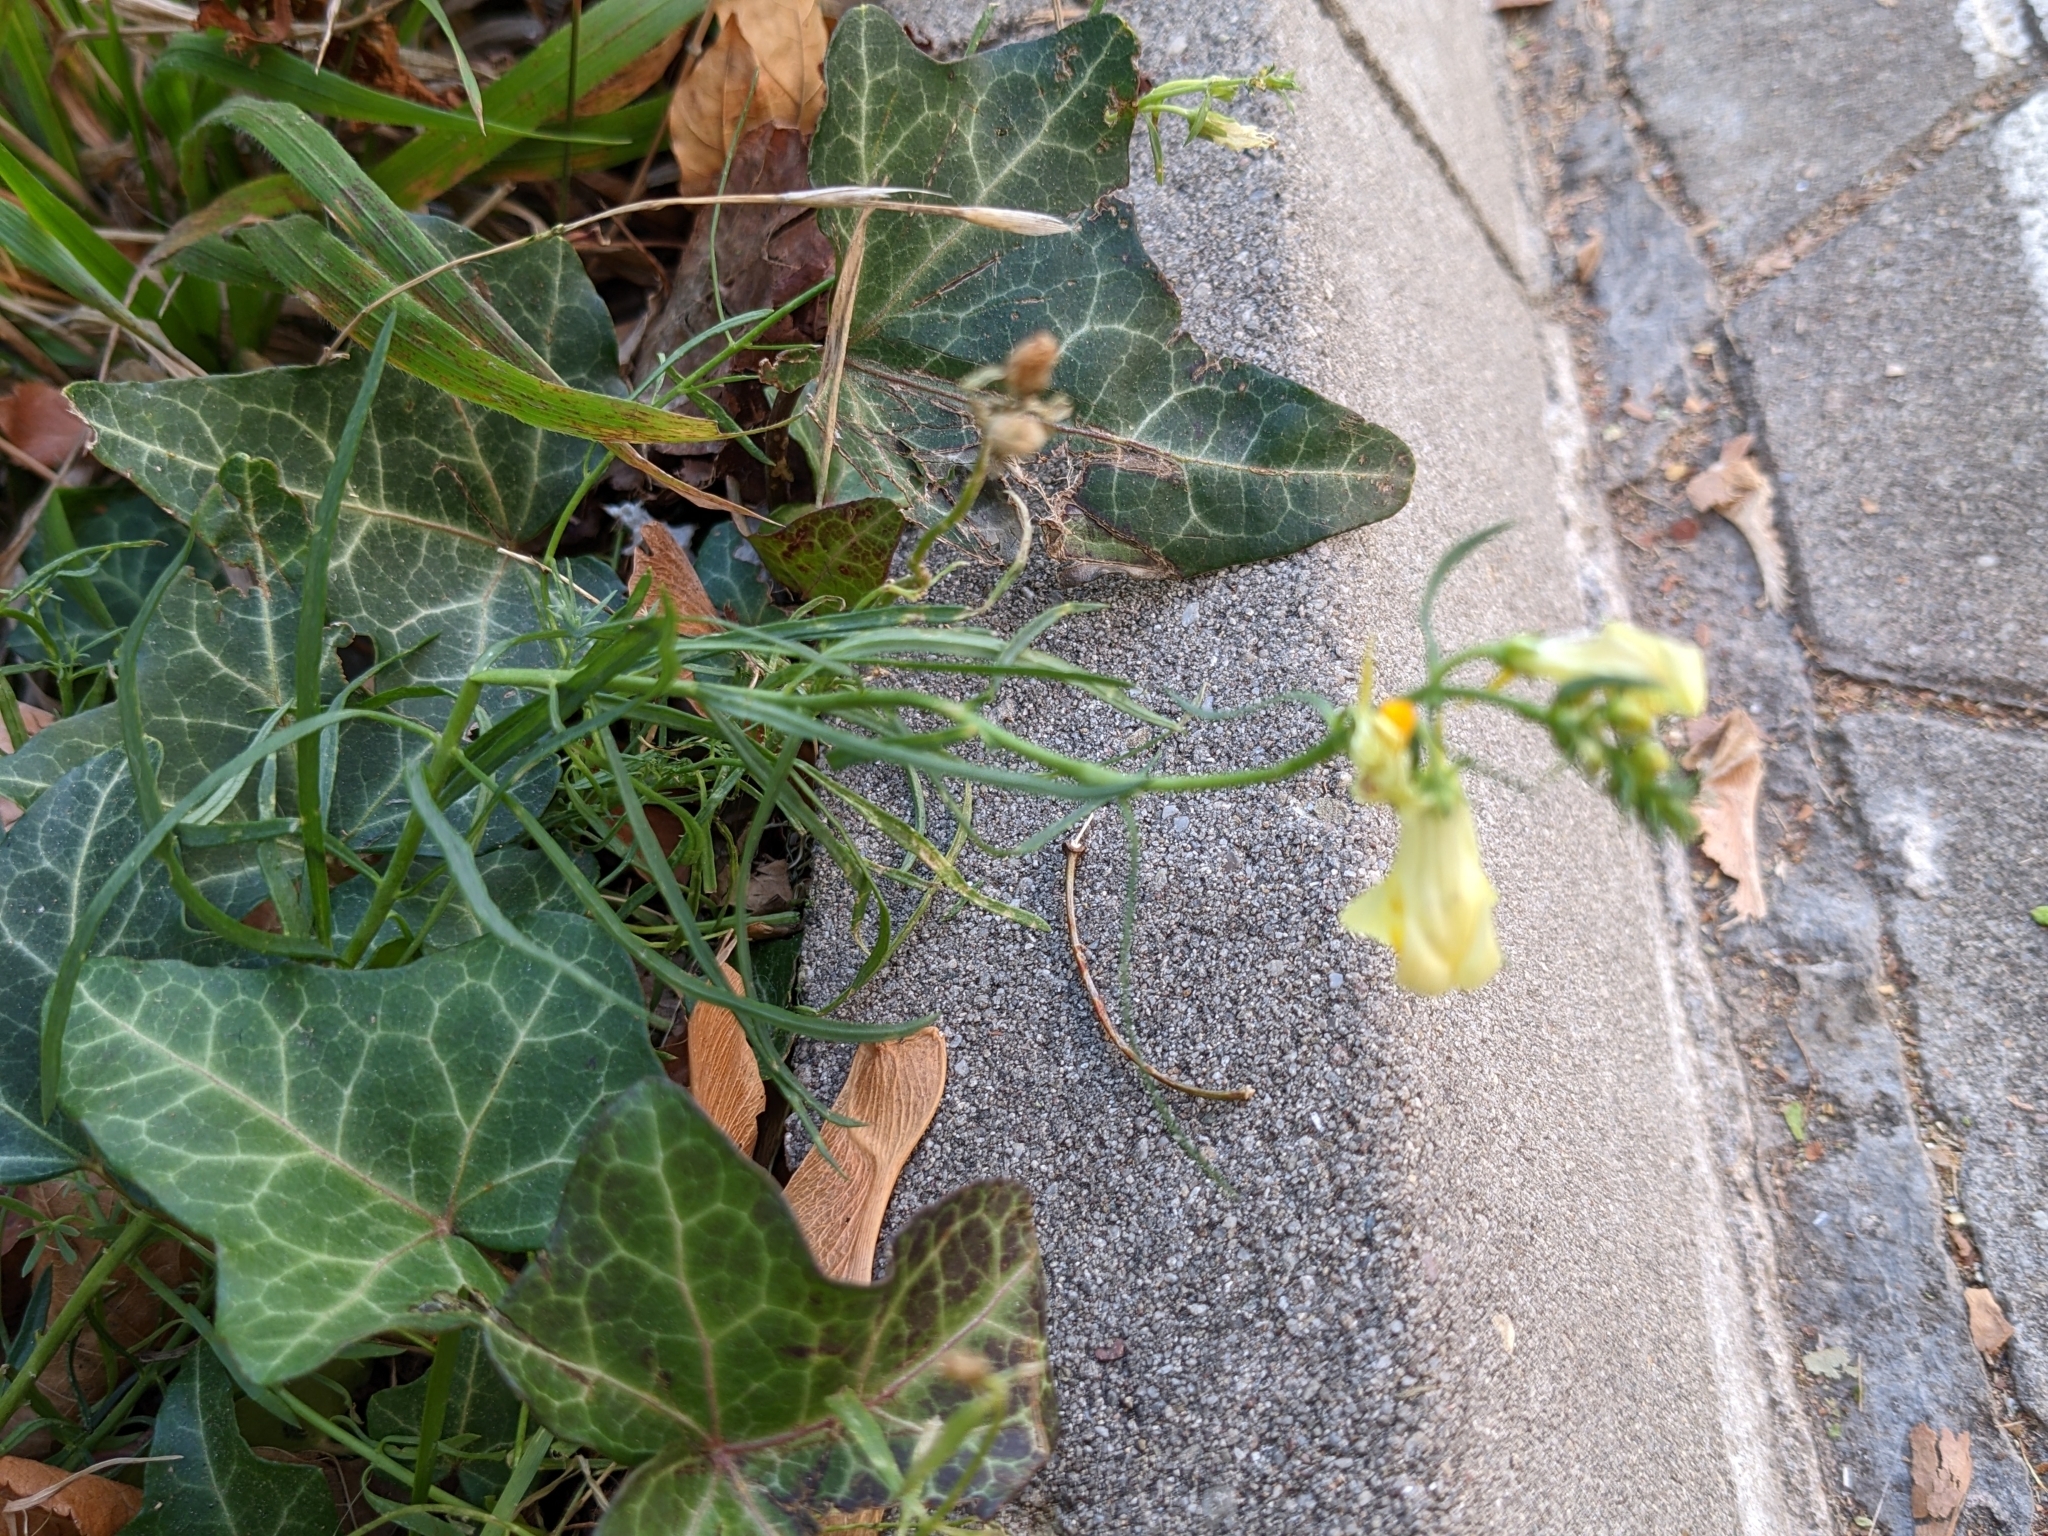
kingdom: Plantae
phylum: Tracheophyta
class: Magnoliopsida
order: Lamiales
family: Plantaginaceae
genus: Linaria
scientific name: Linaria vulgaris
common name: Butter and eggs
